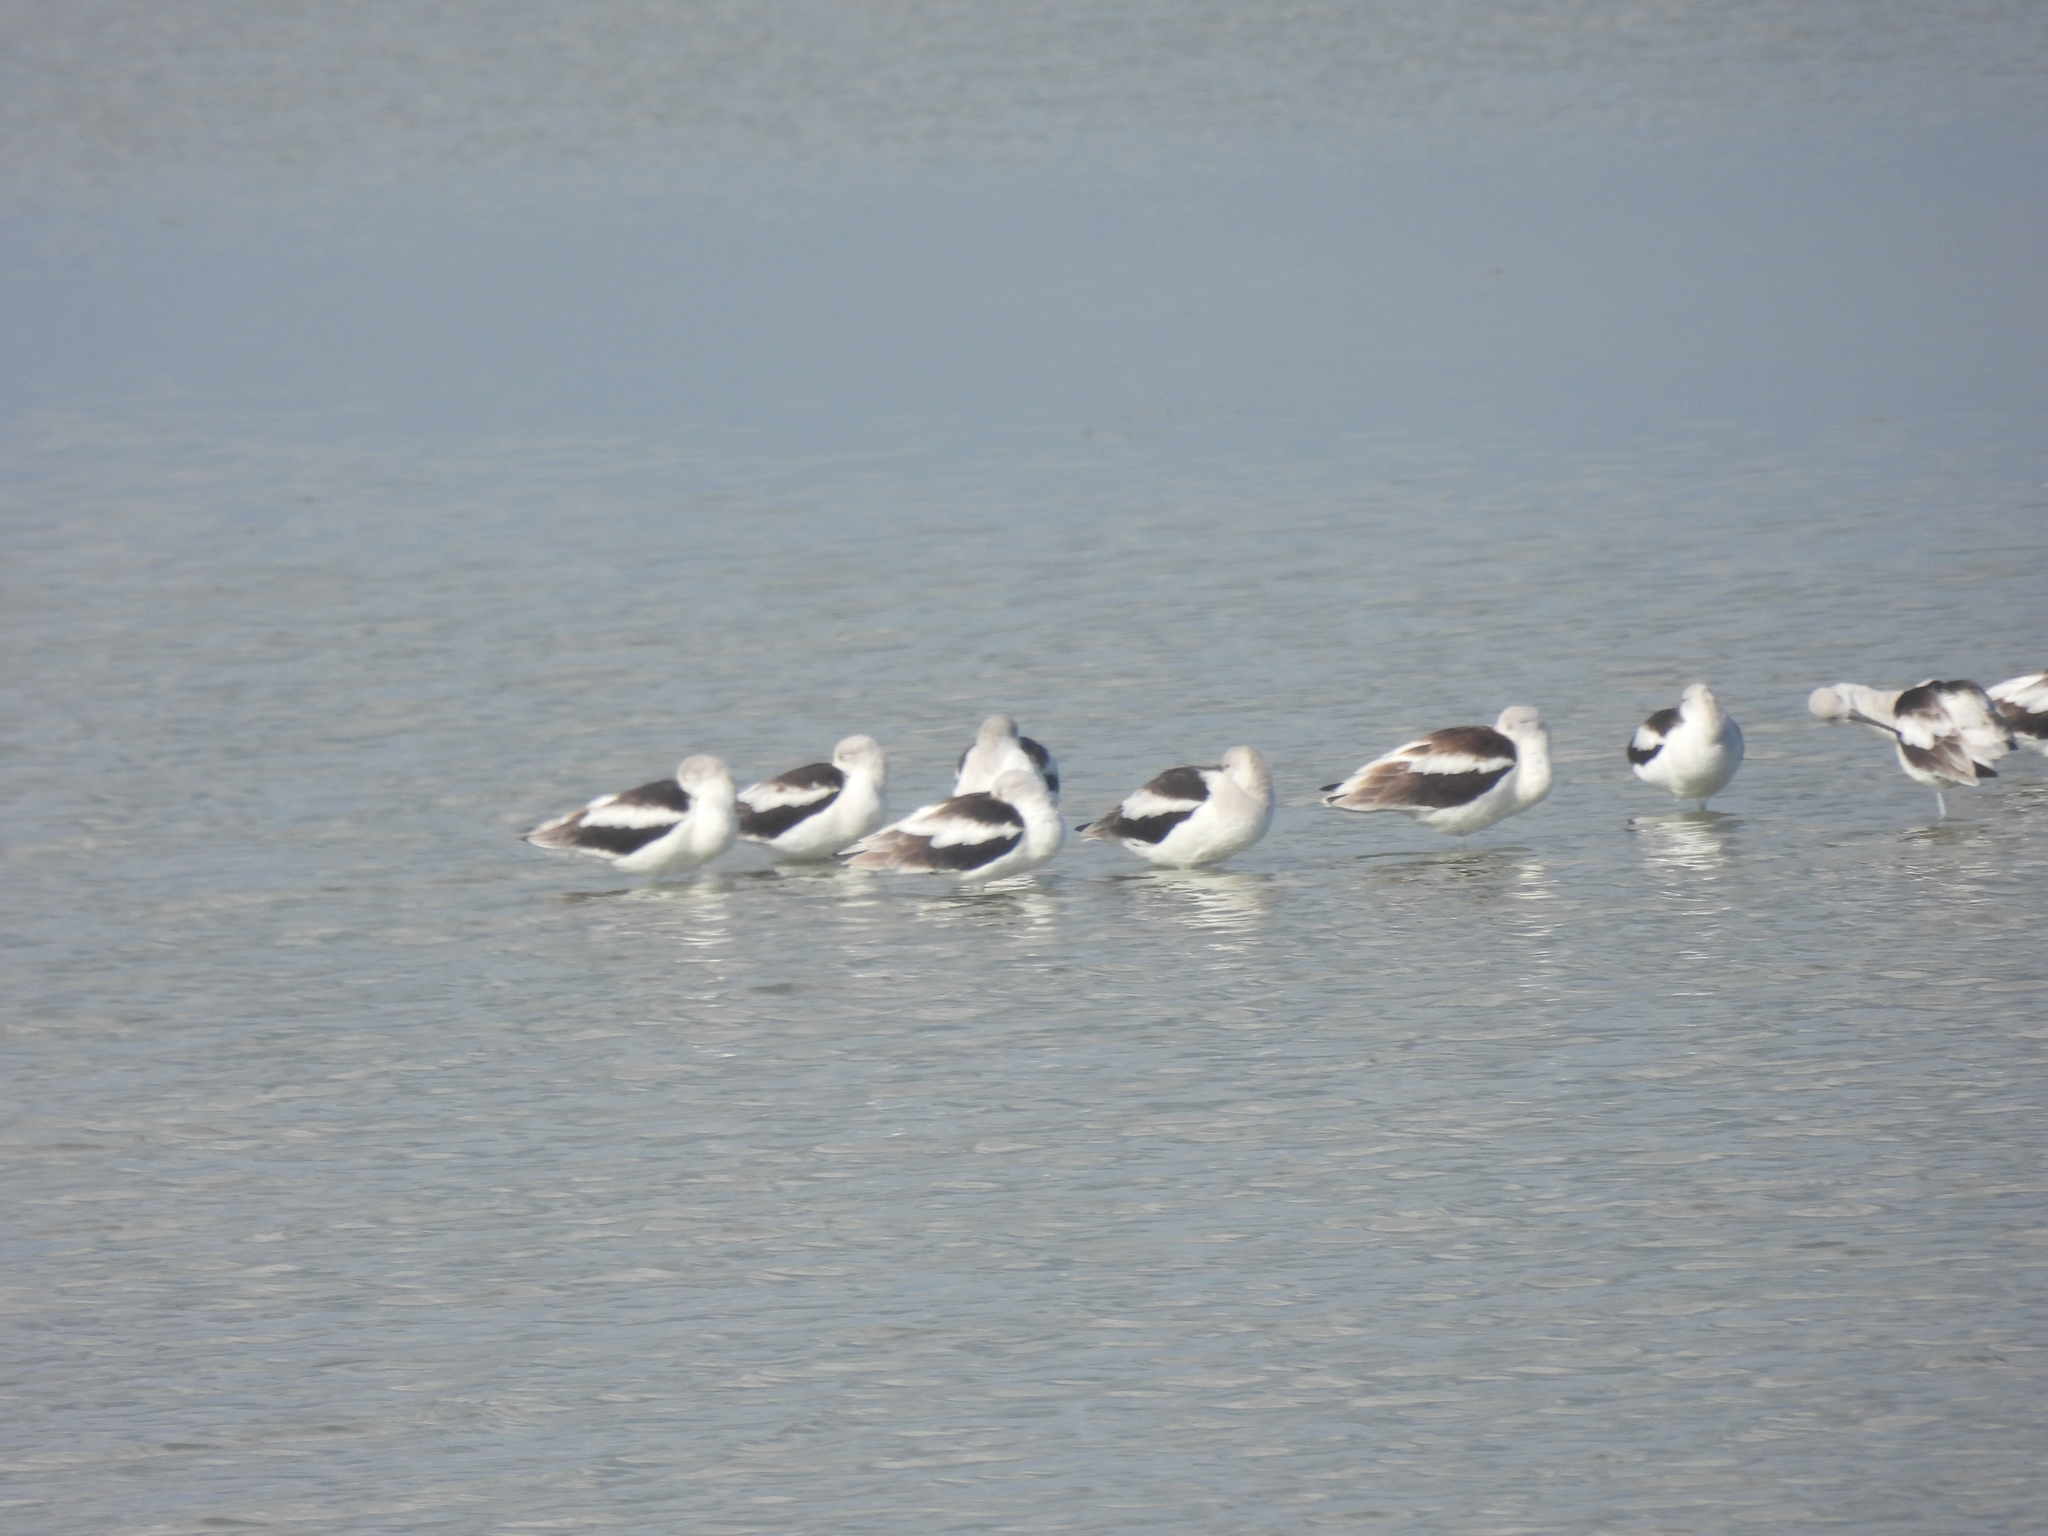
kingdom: Animalia
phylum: Chordata
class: Aves
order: Charadriiformes
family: Recurvirostridae
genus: Recurvirostra
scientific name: Recurvirostra americana
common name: American avocet
